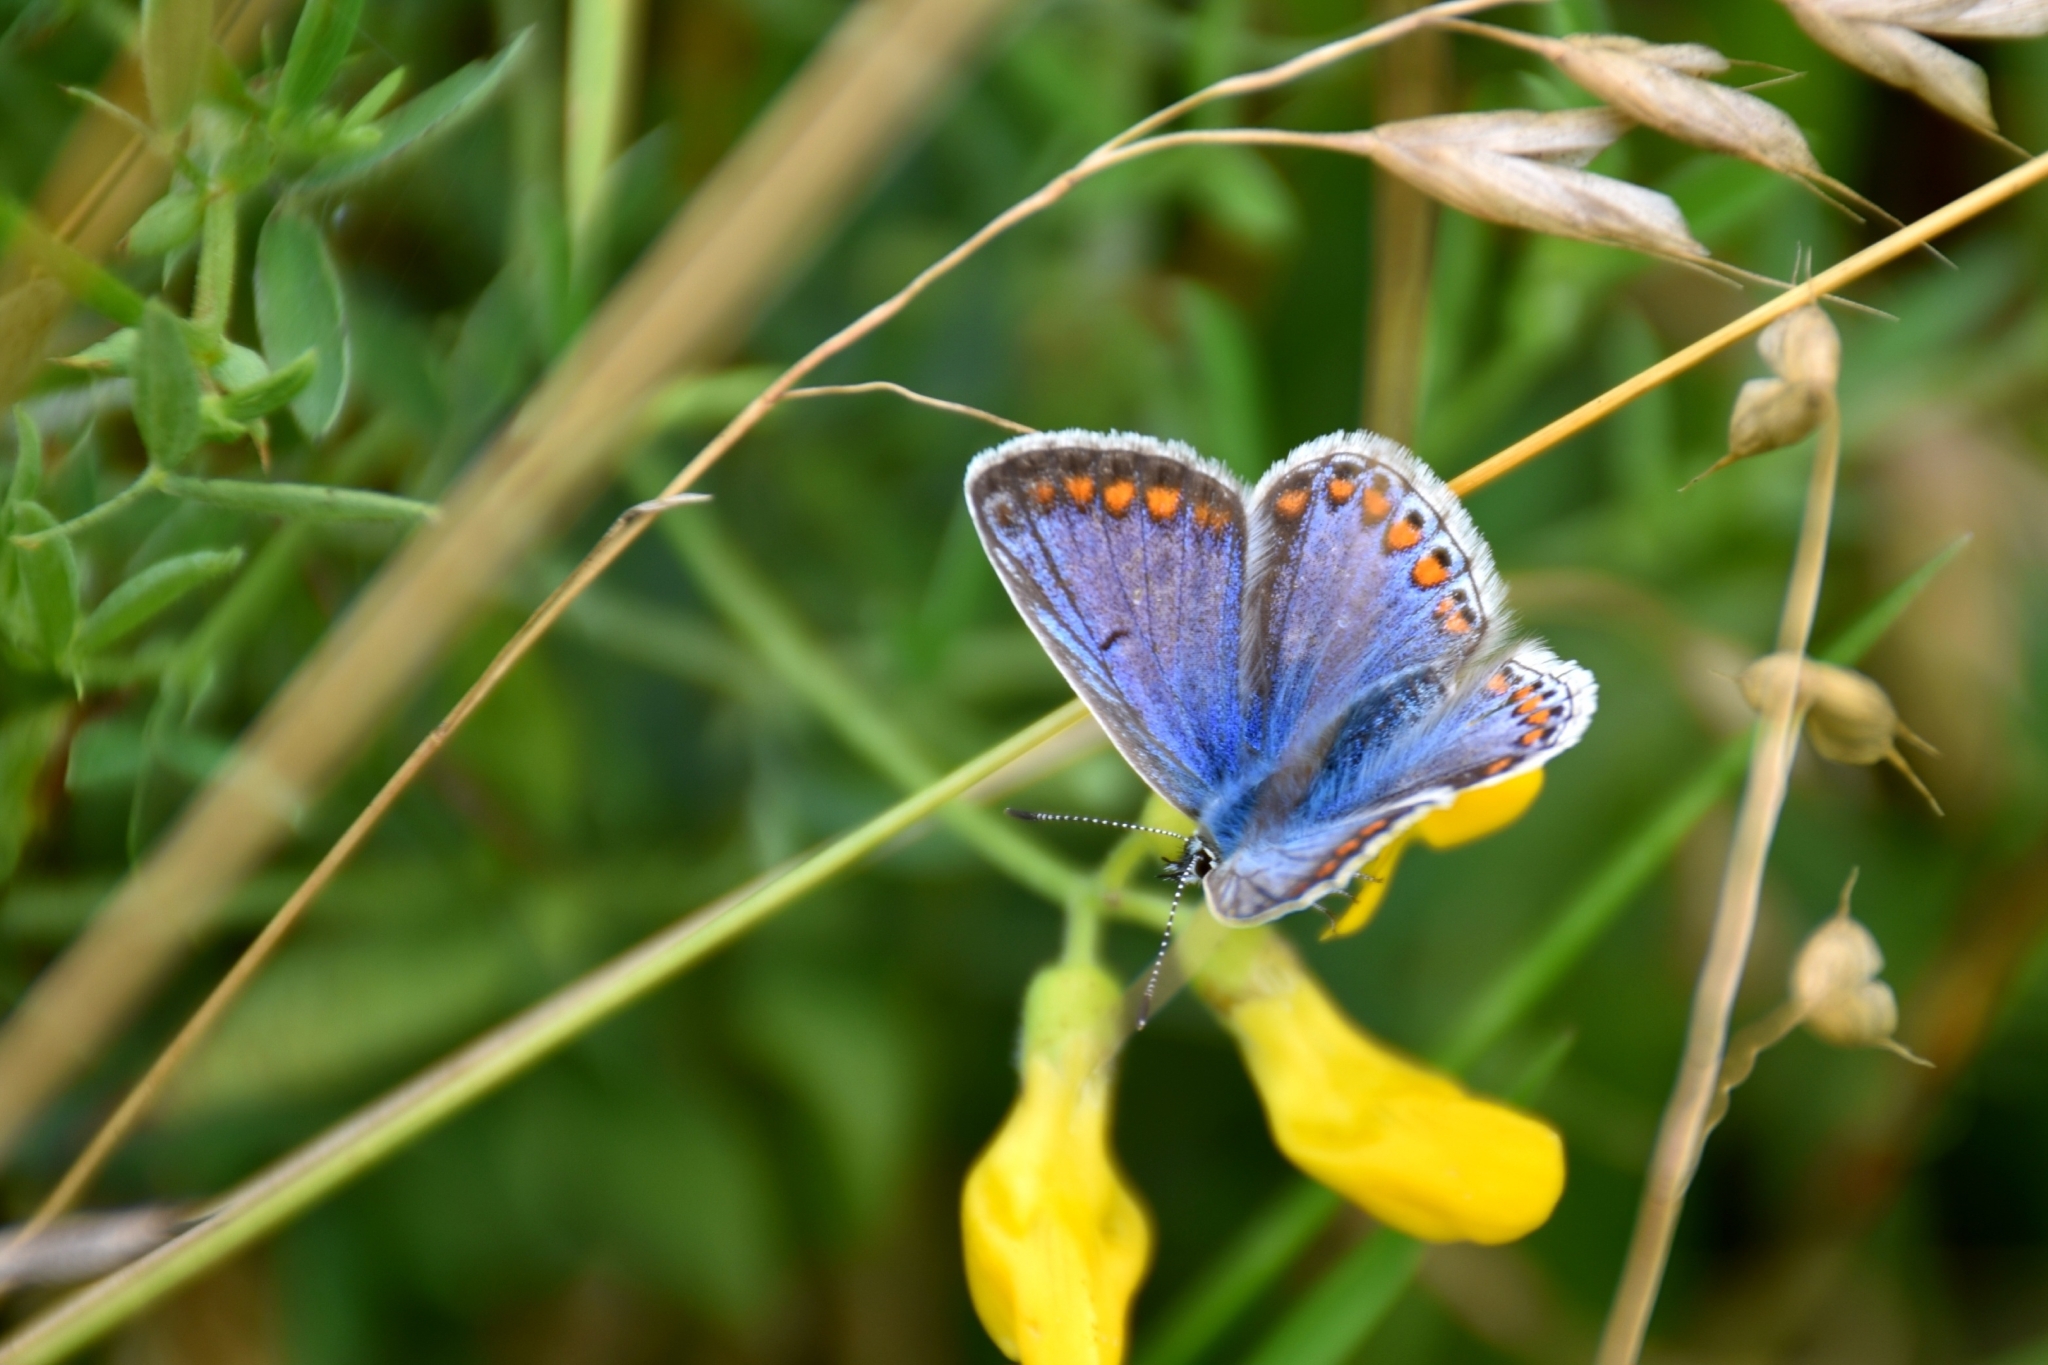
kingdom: Animalia
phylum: Arthropoda
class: Insecta
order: Lepidoptera
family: Lycaenidae
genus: Polyommatus
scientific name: Polyommatus icarus
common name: Common blue
